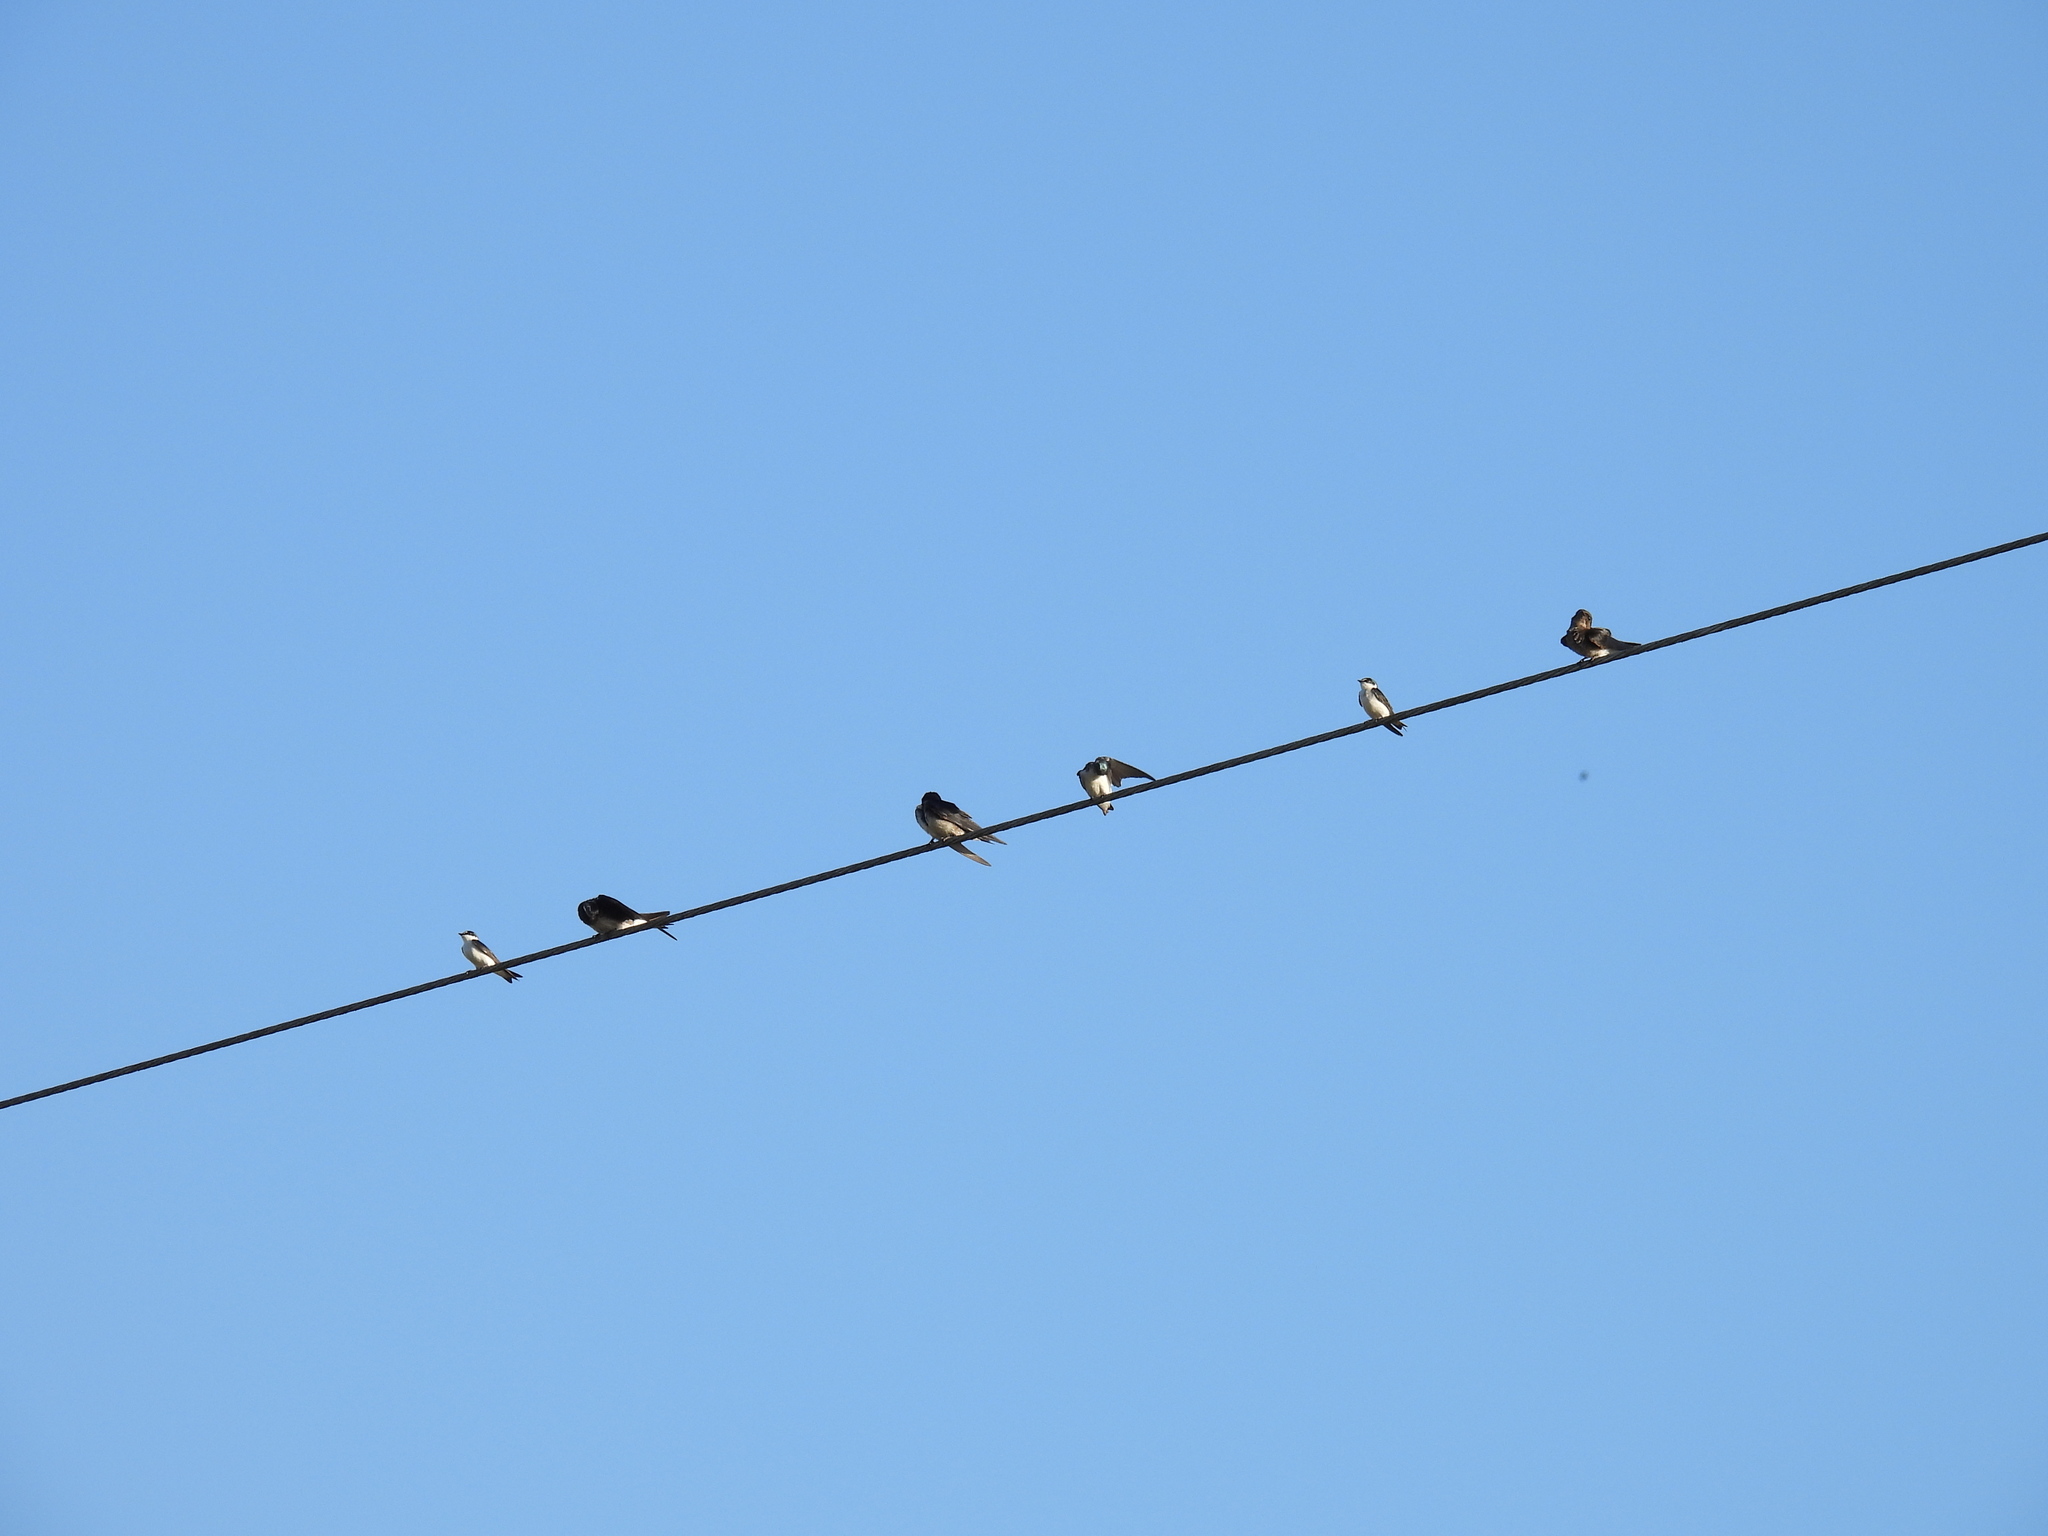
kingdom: Animalia
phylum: Chordata
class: Aves
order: Passeriformes
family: Hirundinidae
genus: Tachycineta
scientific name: Tachycineta albilinea
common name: Mangrove swallow
